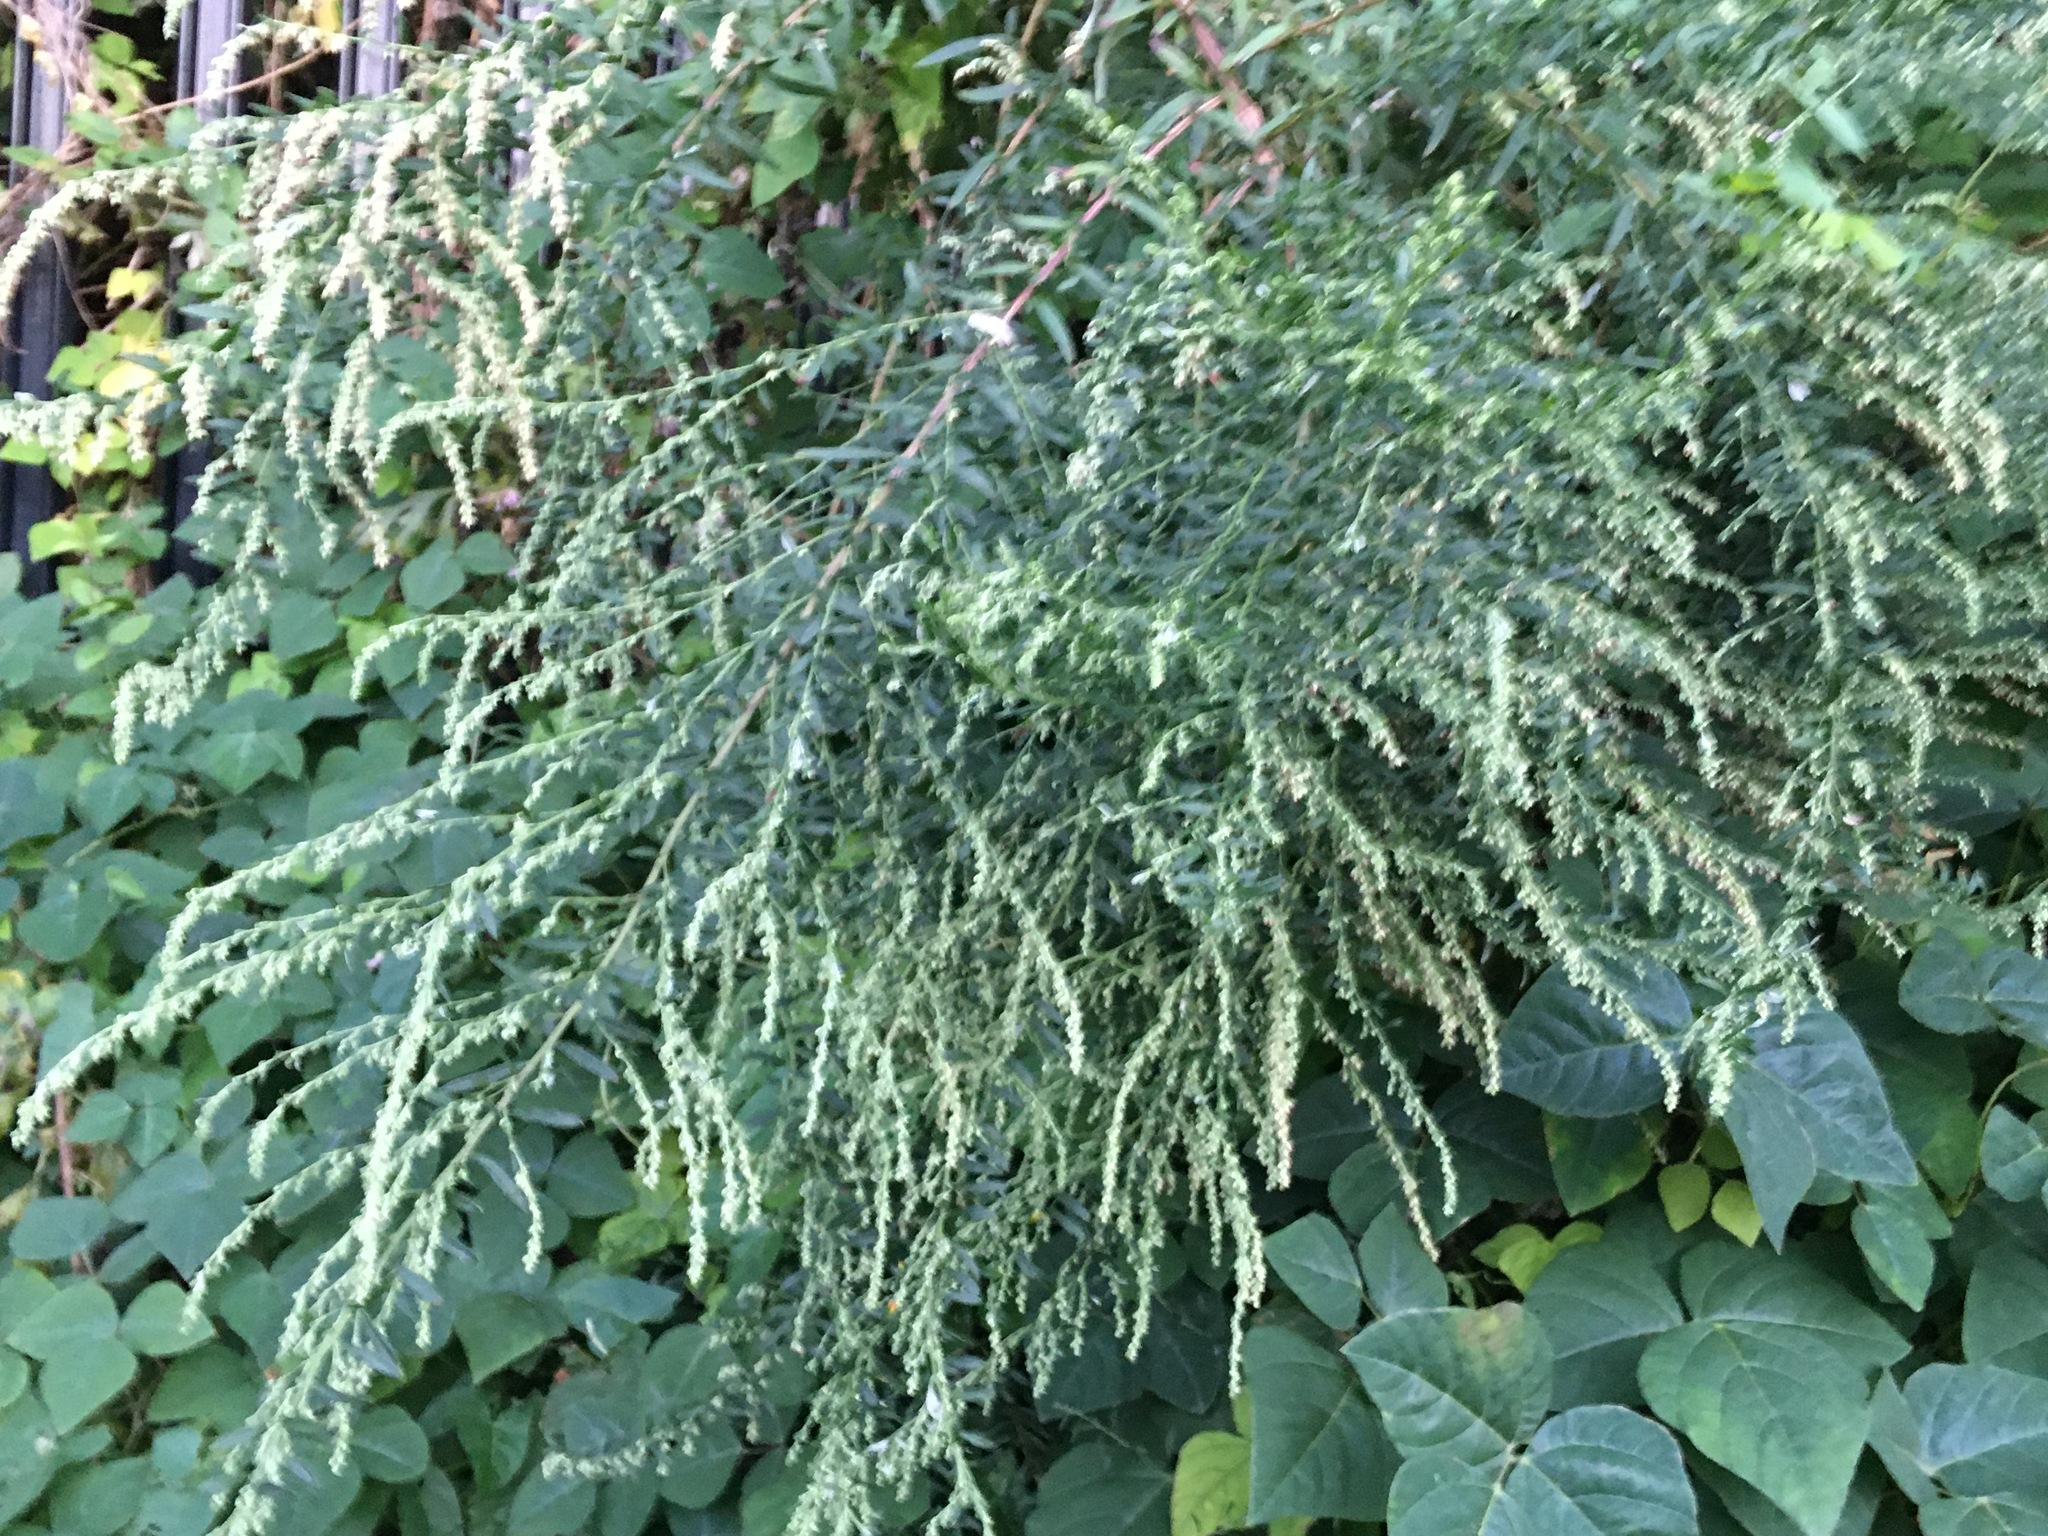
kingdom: Plantae
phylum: Tracheophyta
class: Magnoliopsida
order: Asterales
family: Asteraceae
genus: Artemisia
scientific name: Artemisia vulgaris
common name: Mugwort
